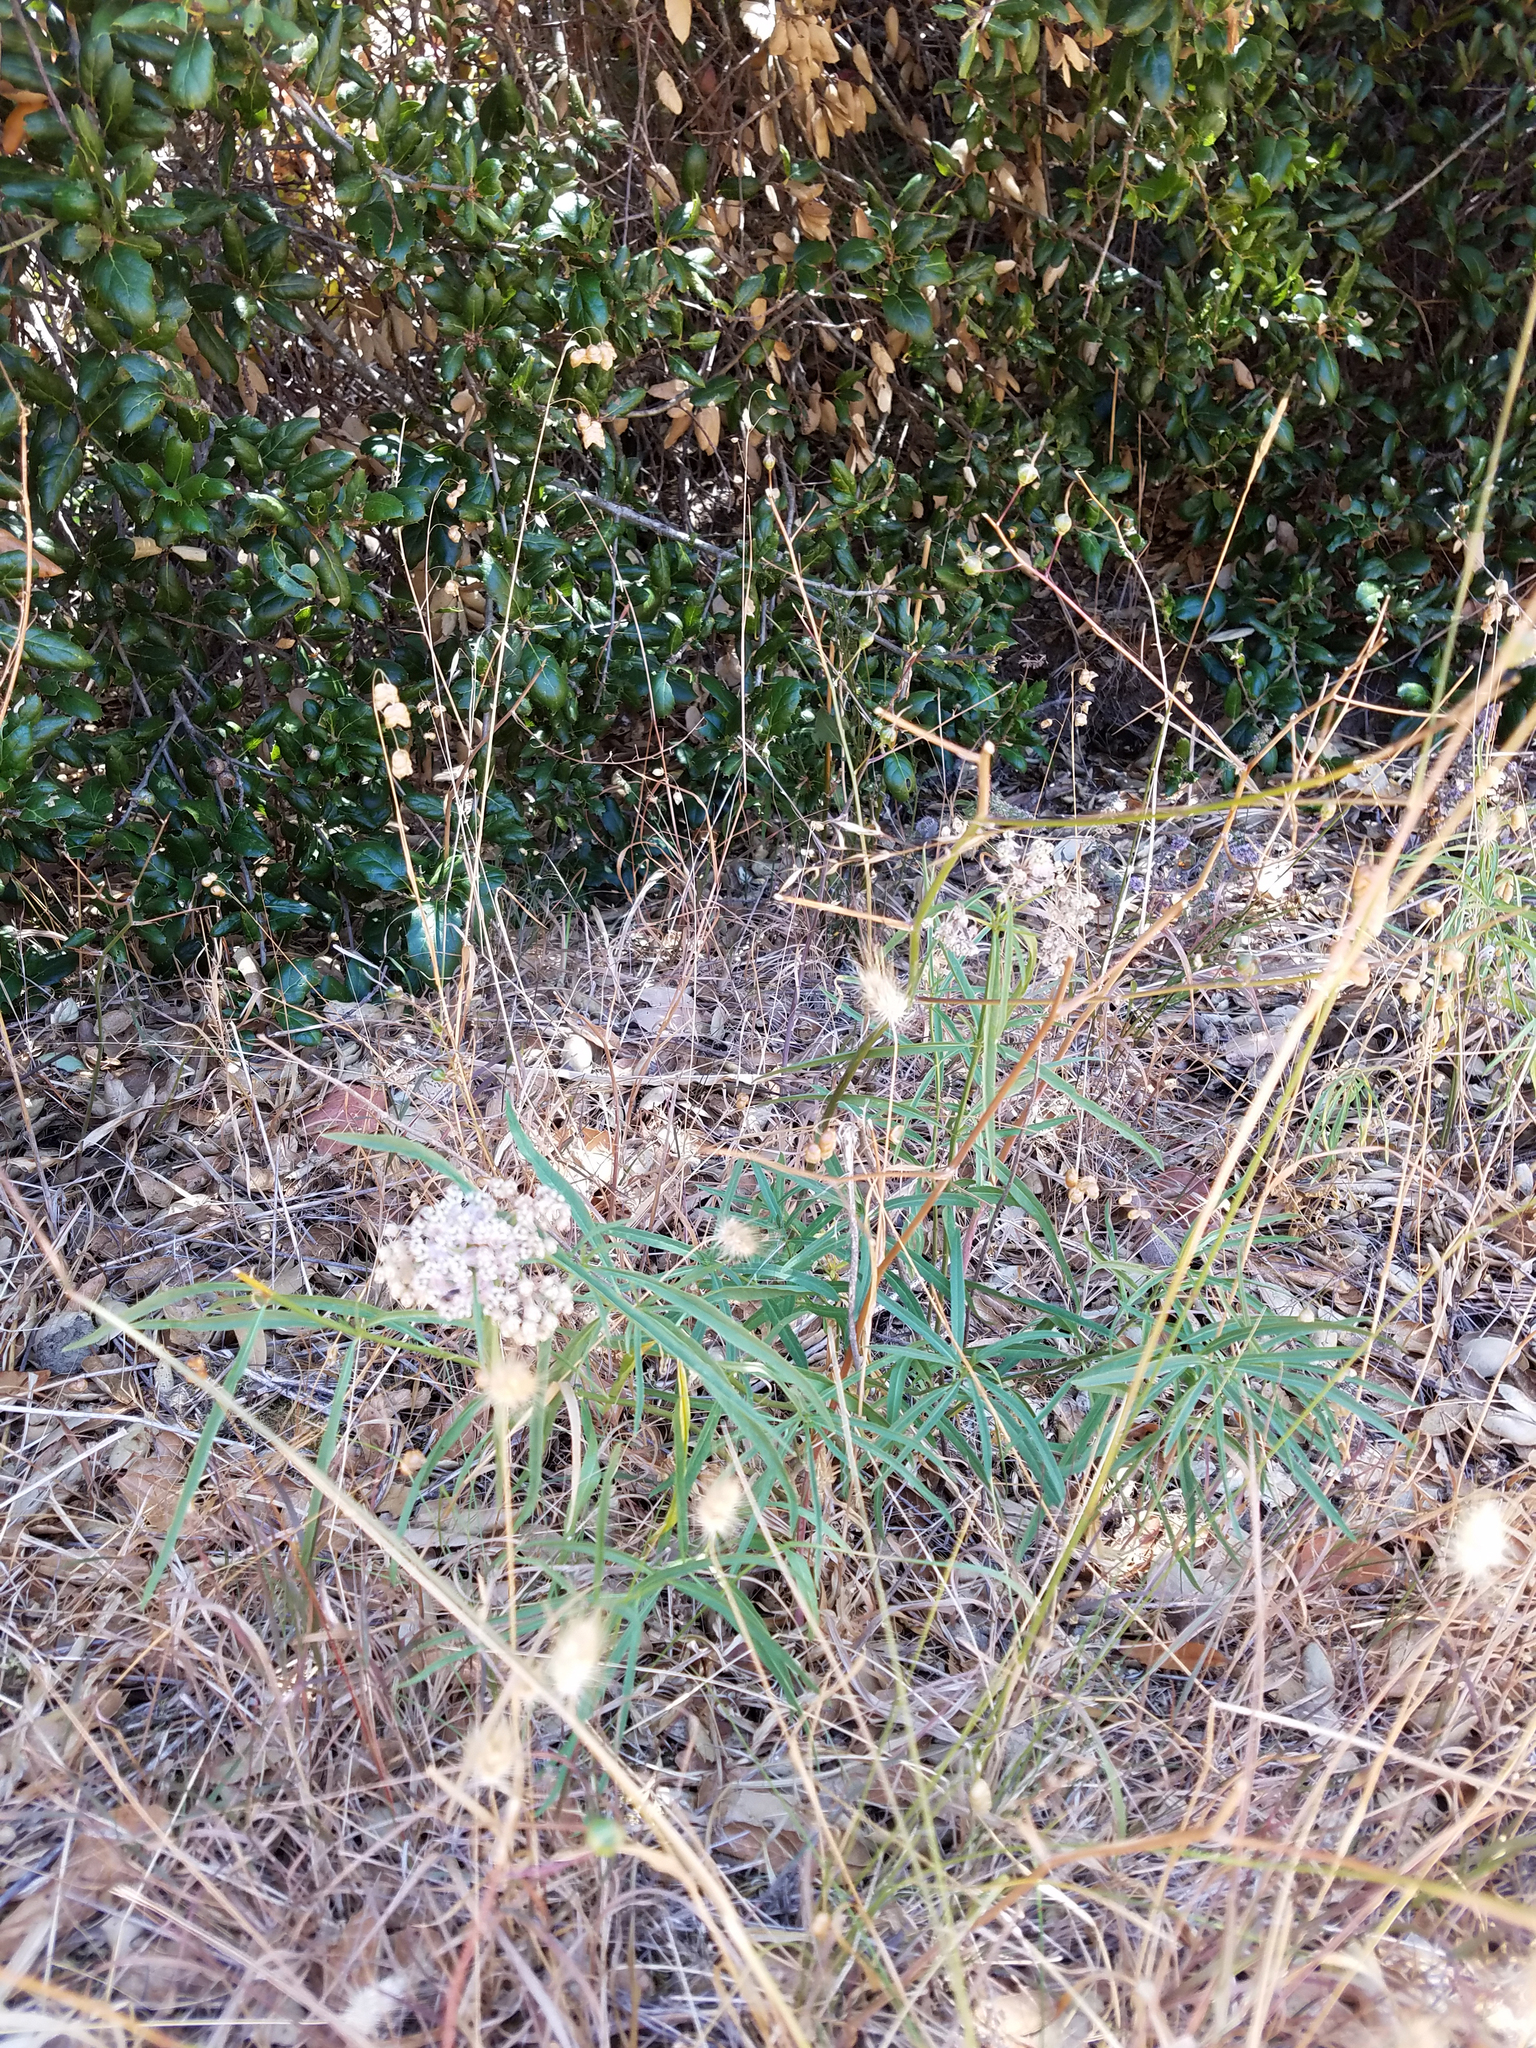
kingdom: Plantae
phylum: Tracheophyta
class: Magnoliopsida
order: Gentianales
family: Apocynaceae
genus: Asclepias
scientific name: Asclepias fascicularis
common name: Mexican milkweed
